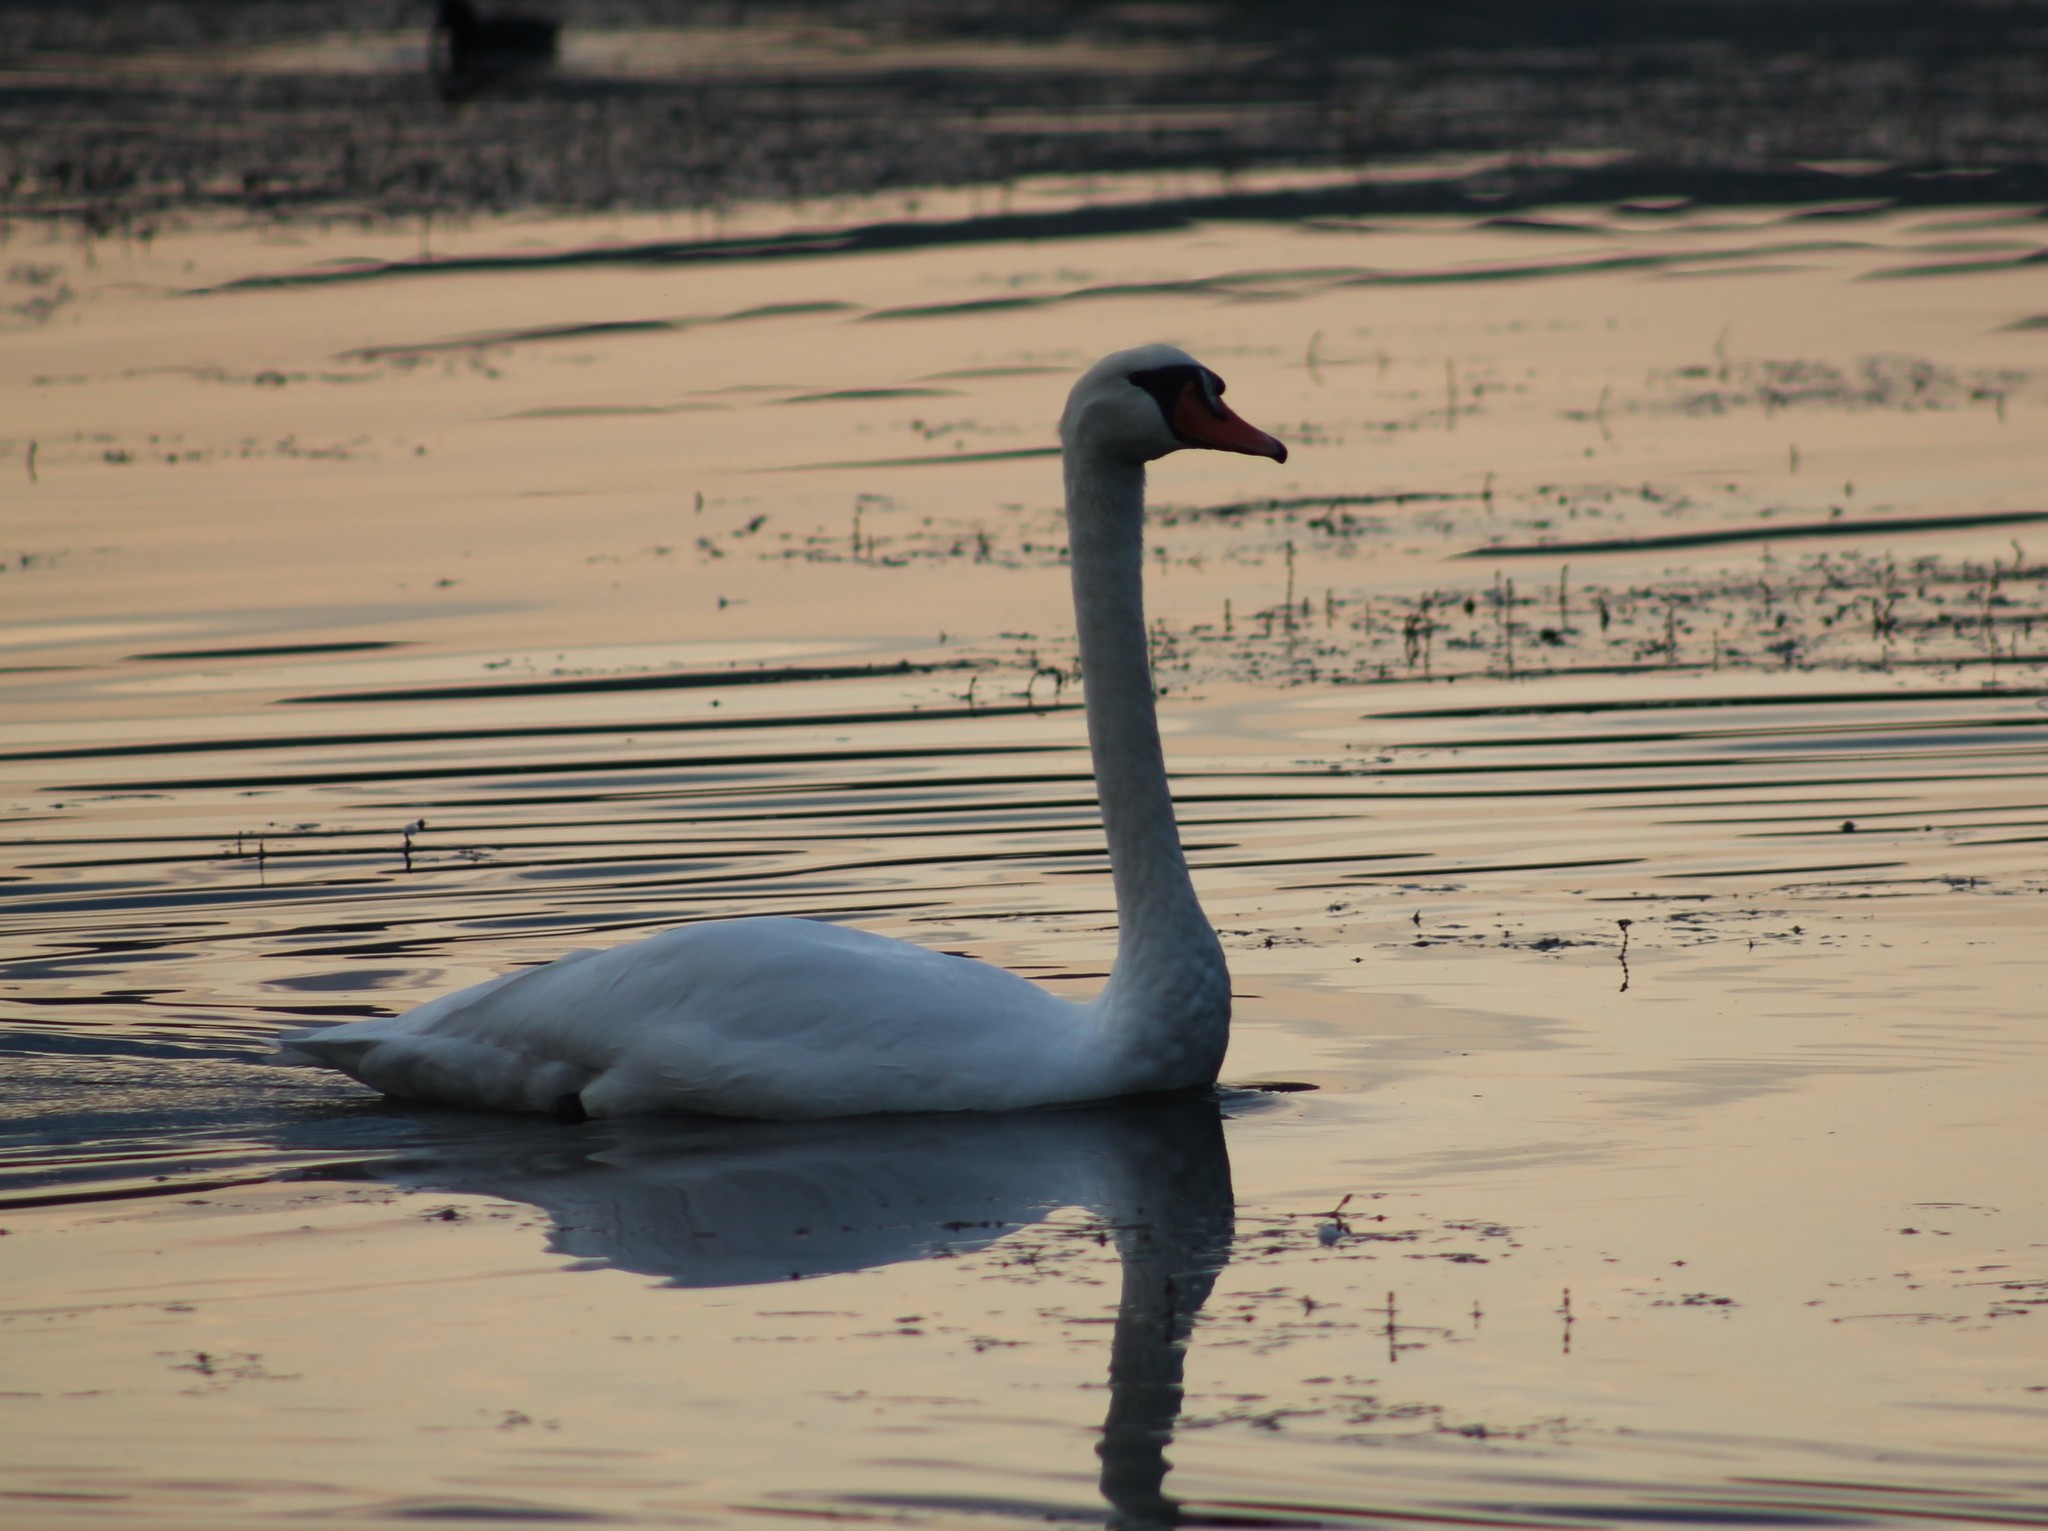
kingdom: Animalia
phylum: Chordata
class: Aves
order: Anseriformes
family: Anatidae
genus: Cygnus
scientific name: Cygnus olor
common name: Mute swan
